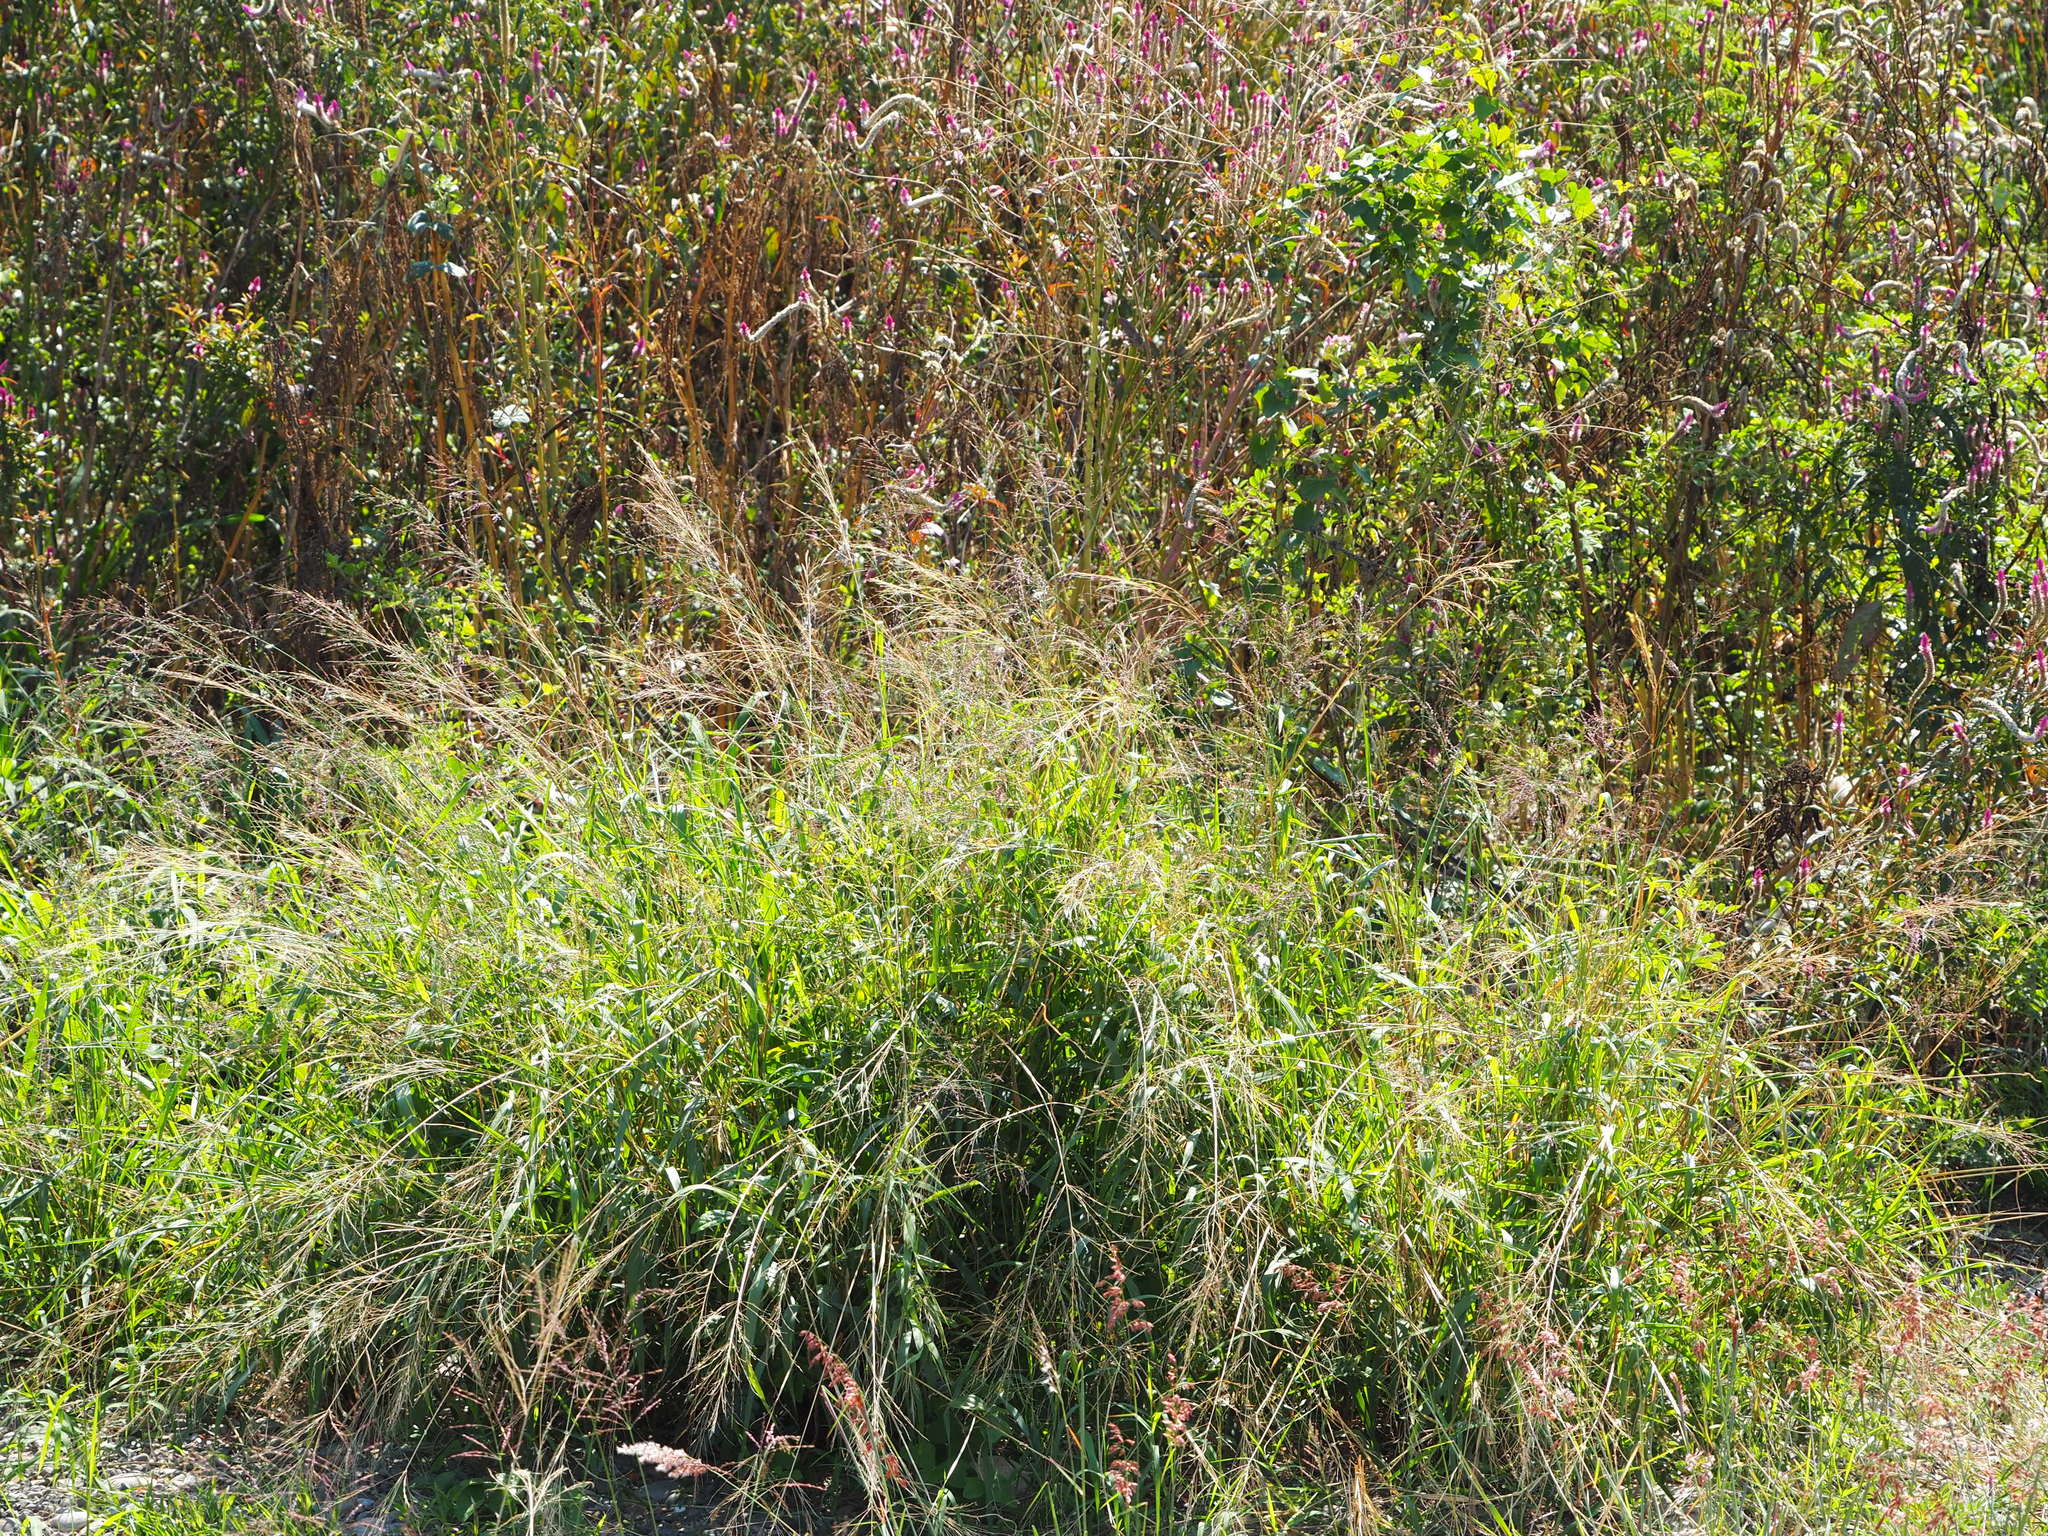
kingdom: Plantae
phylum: Tracheophyta
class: Liliopsida
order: Poales
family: Poaceae
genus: Megathyrsus
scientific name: Megathyrsus maximus
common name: Guineagrass
